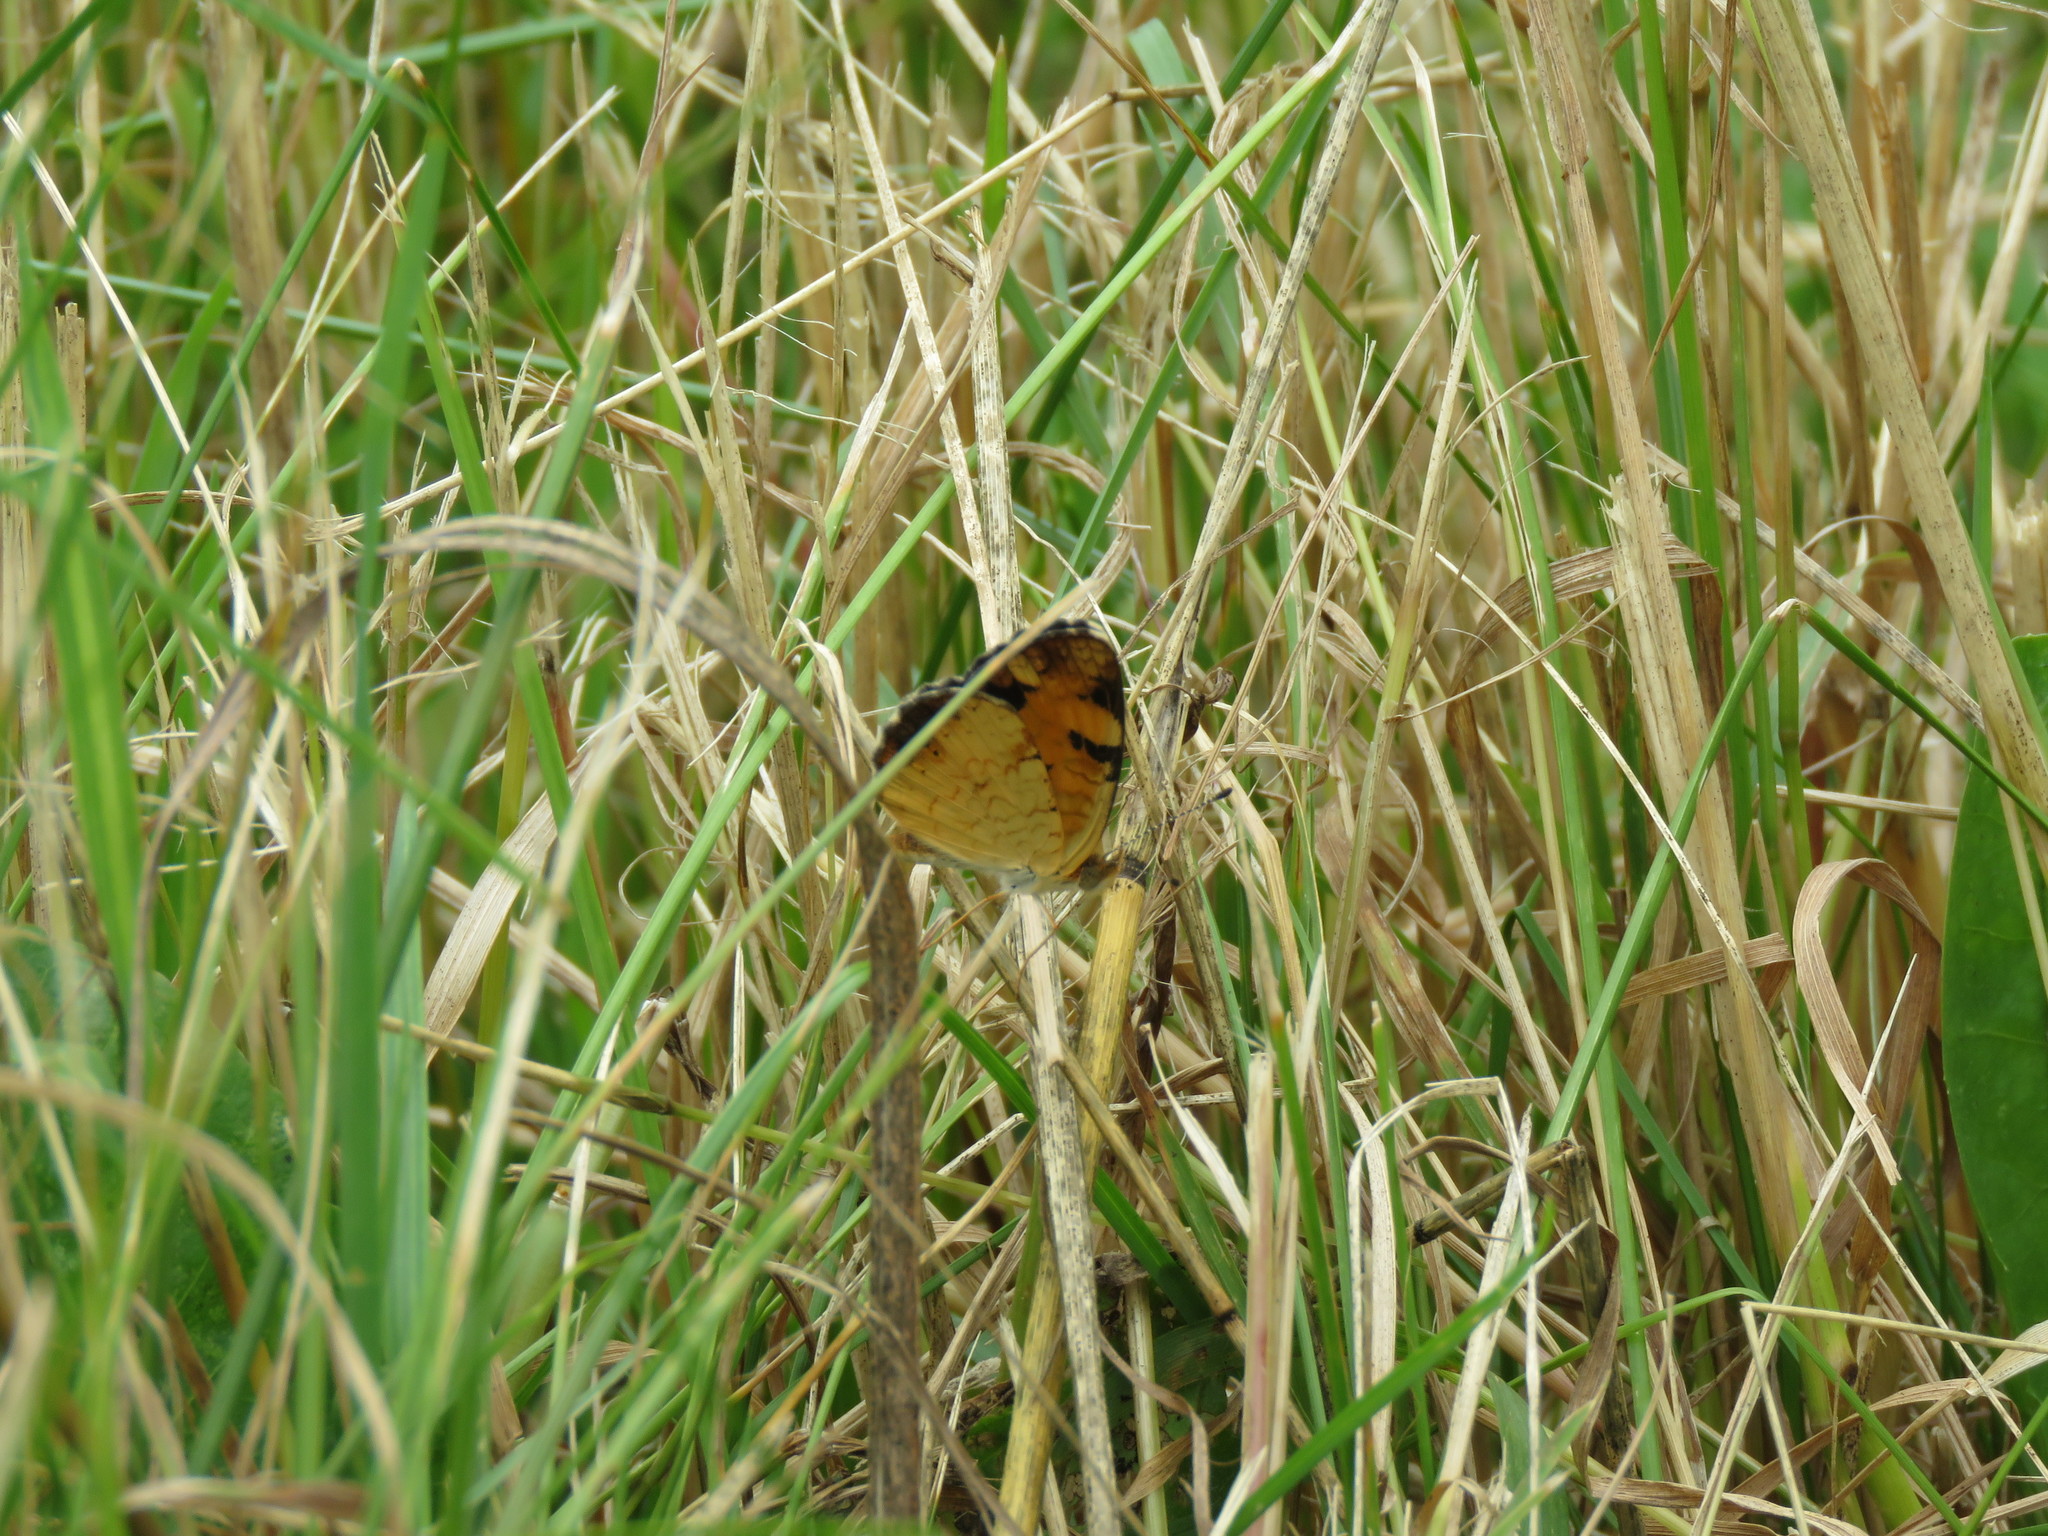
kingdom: Animalia
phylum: Arthropoda
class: Insecta
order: Lepidoptera
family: Nymphalidae
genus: Phyciodes
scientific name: Phyciodes tharos
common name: Pearl crescent
